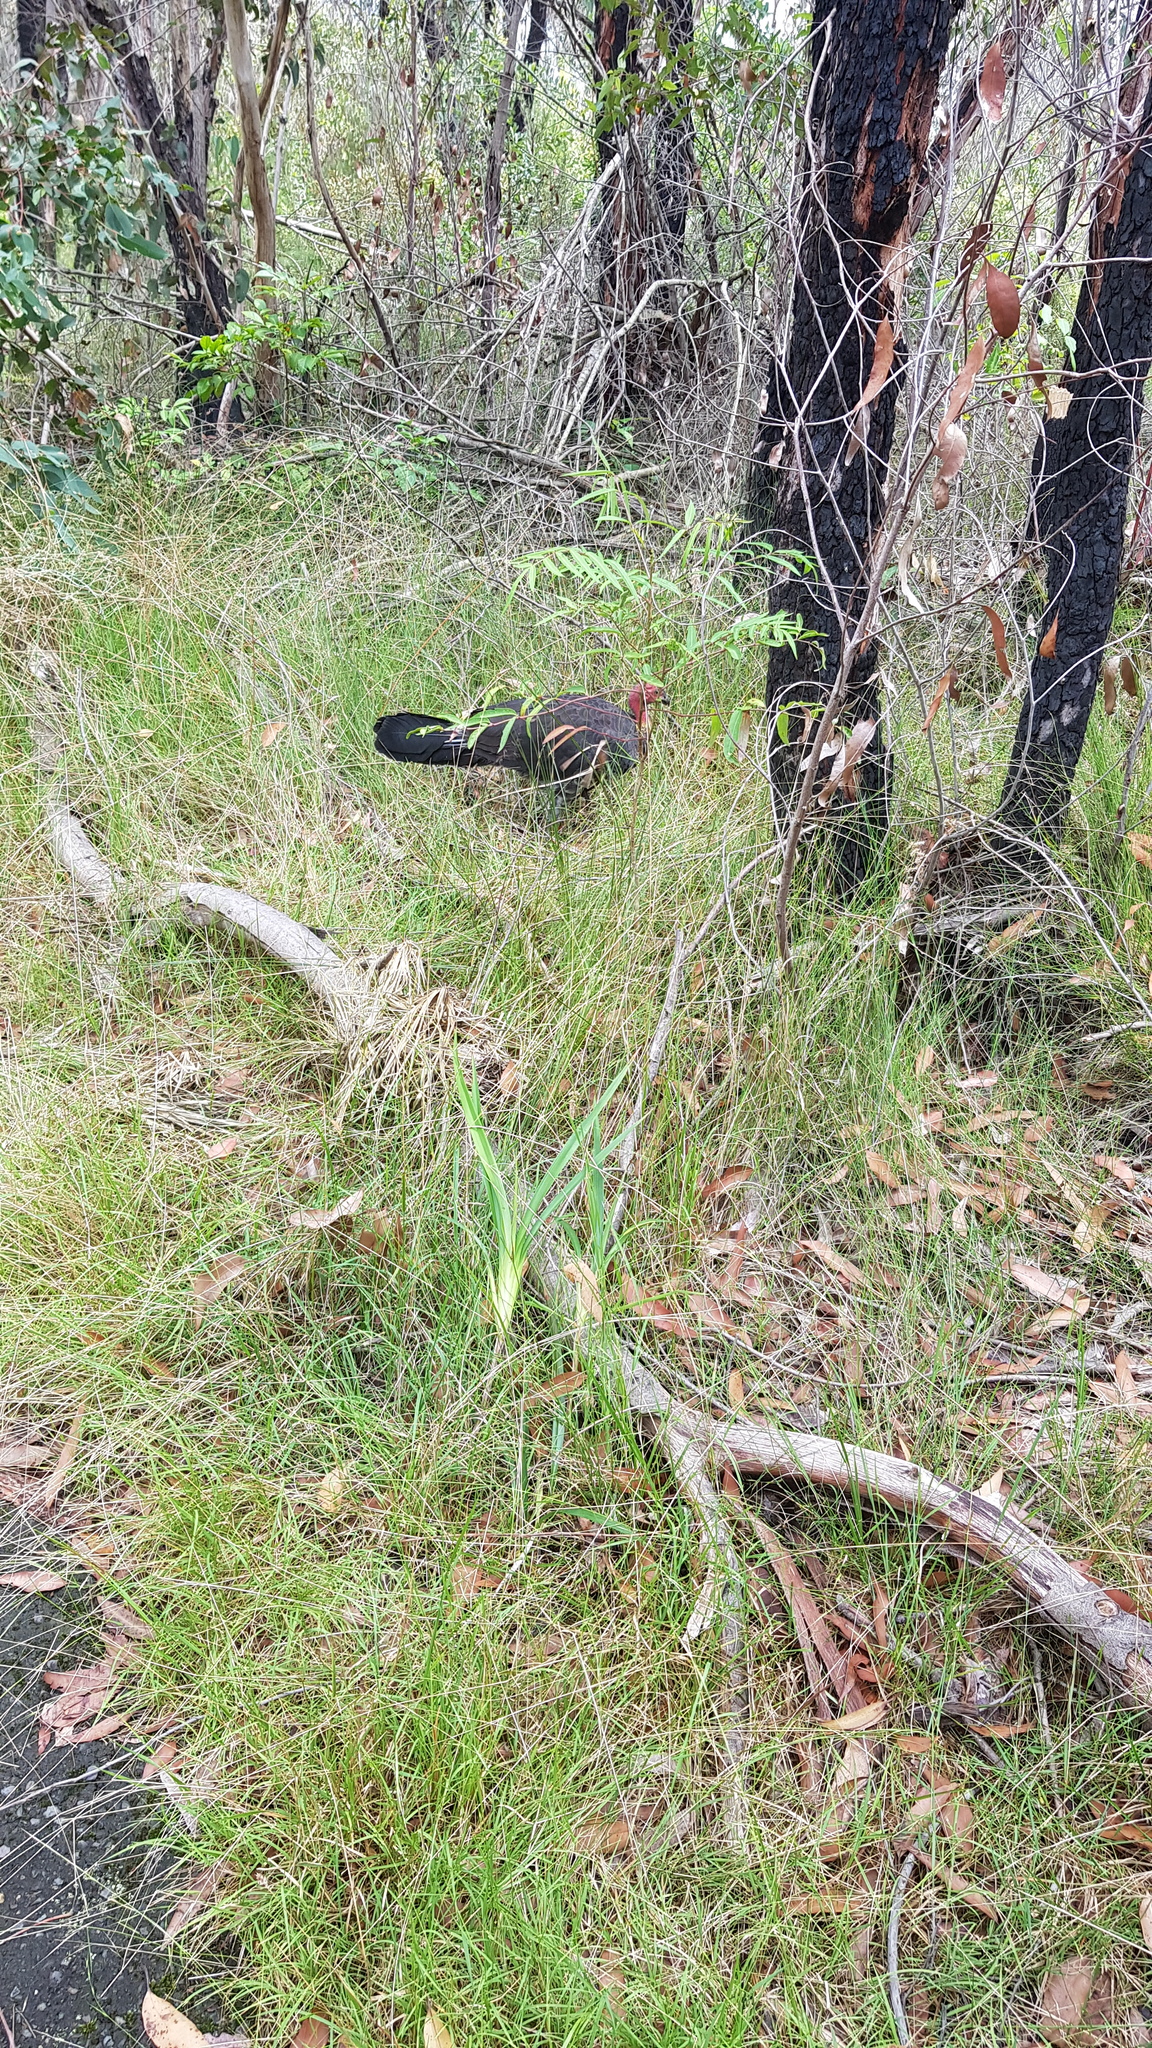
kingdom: Animalia
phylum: Chordata
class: Aves
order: Galliformes
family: Megapodiidae
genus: Alectura
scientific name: Alectura lathami
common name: Australian brushturkey
